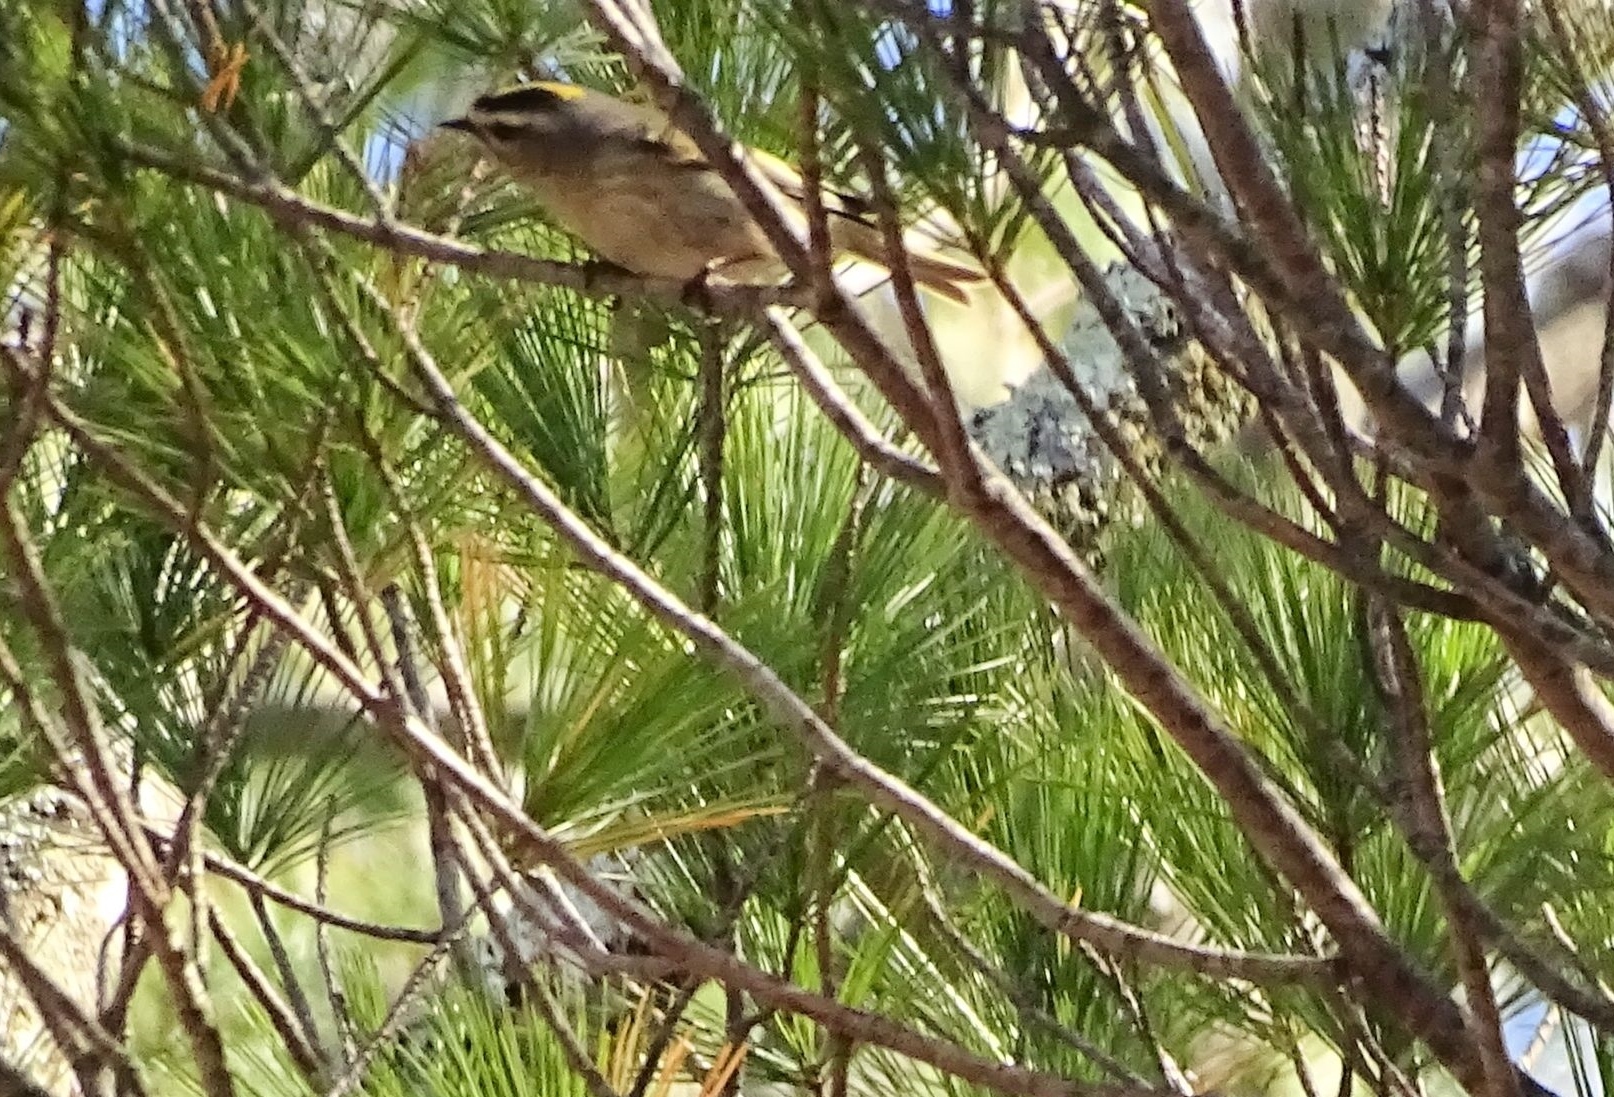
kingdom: Animalia
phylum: Chordata
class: Aves
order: Passeriformes
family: Regulidae
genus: Regulus
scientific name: Regulus satrapa
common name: Golden-crowned kinglet
